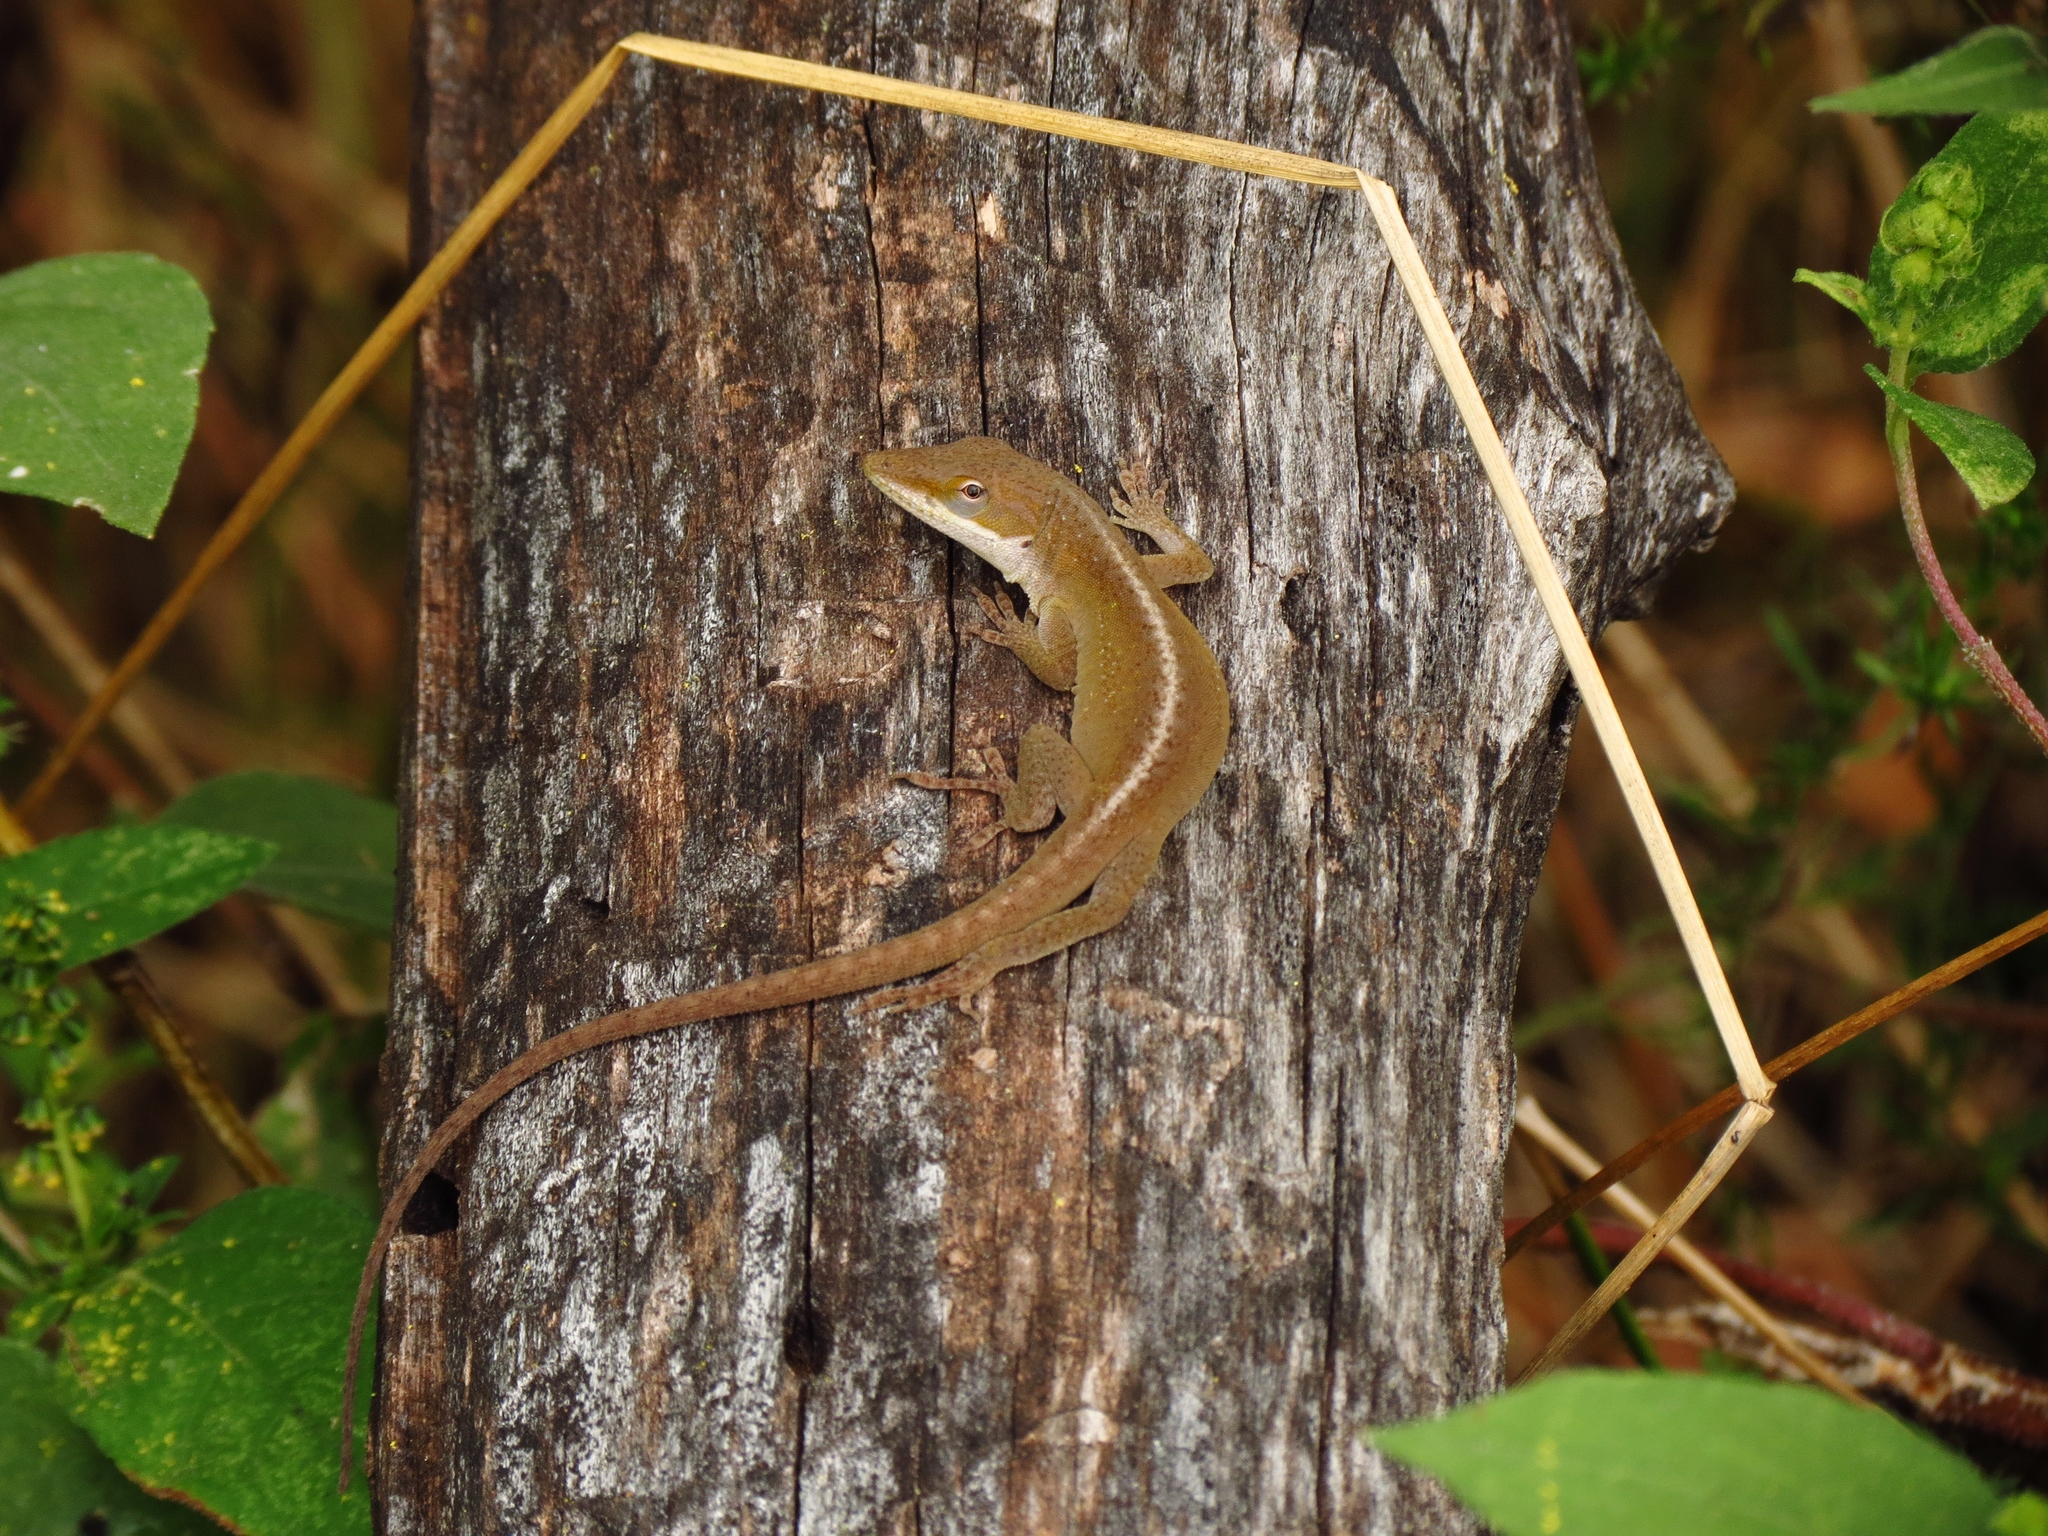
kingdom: Animalia
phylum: Chordata
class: Squamata
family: Dactyloidae
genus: Anolis
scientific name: Anolis carolinensis
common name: Green anole
